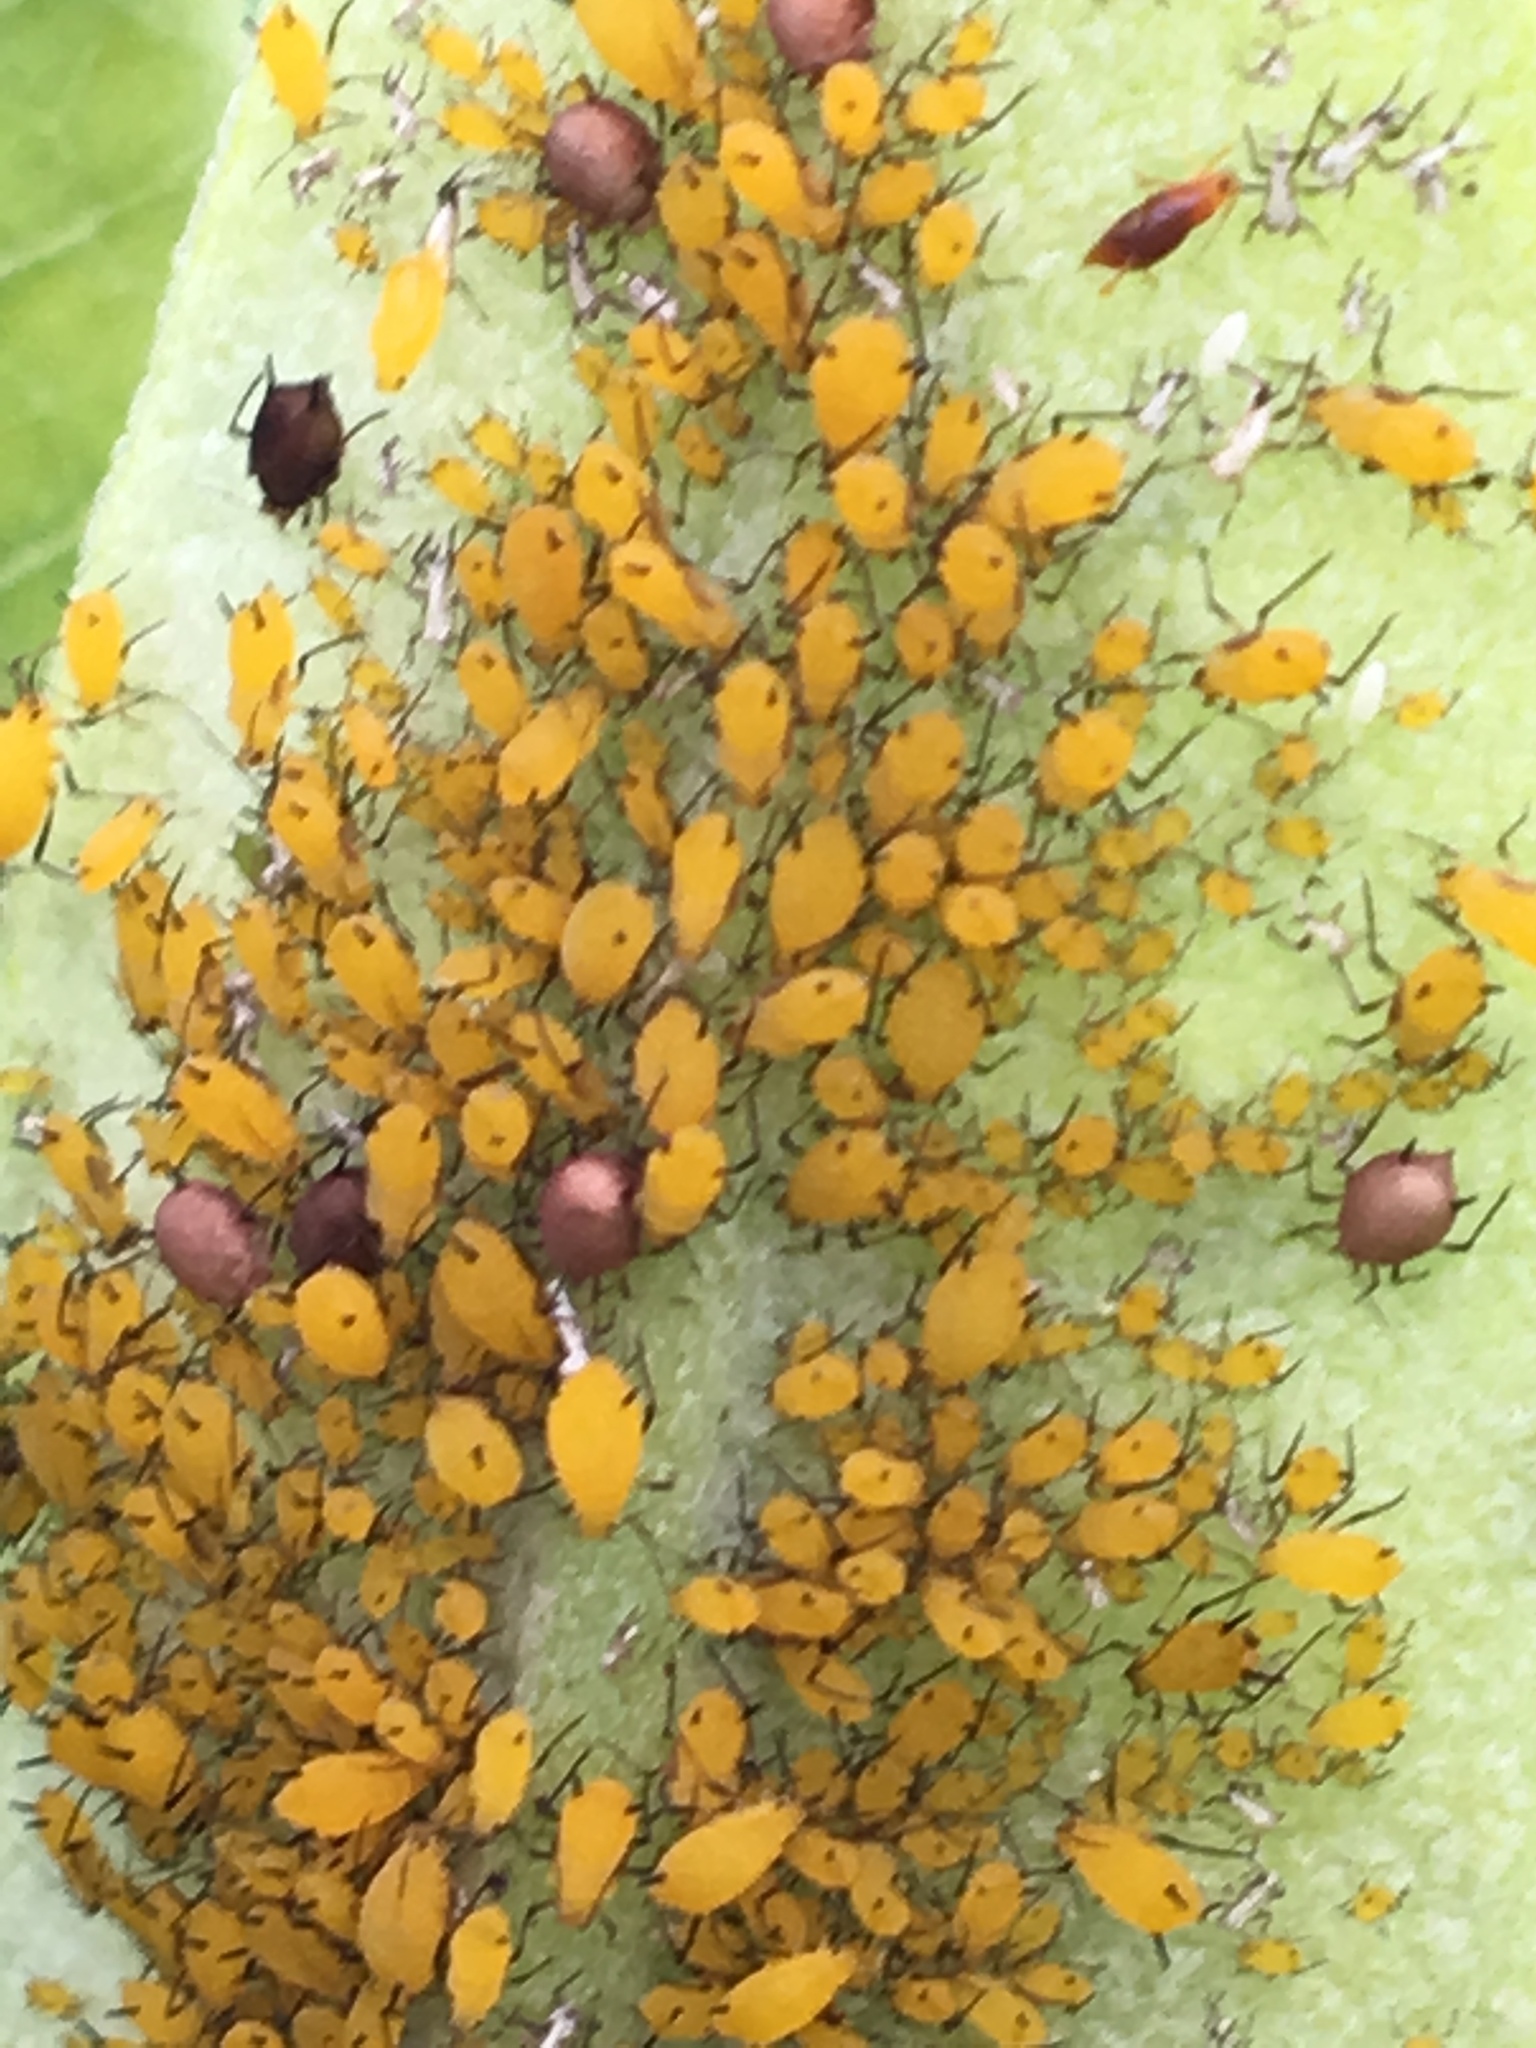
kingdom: Animalia
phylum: Arthropoda
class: Insecta
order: Hemiptera
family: Aphididae
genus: Aphis
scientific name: Aphis nerii
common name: Oleander aphid
